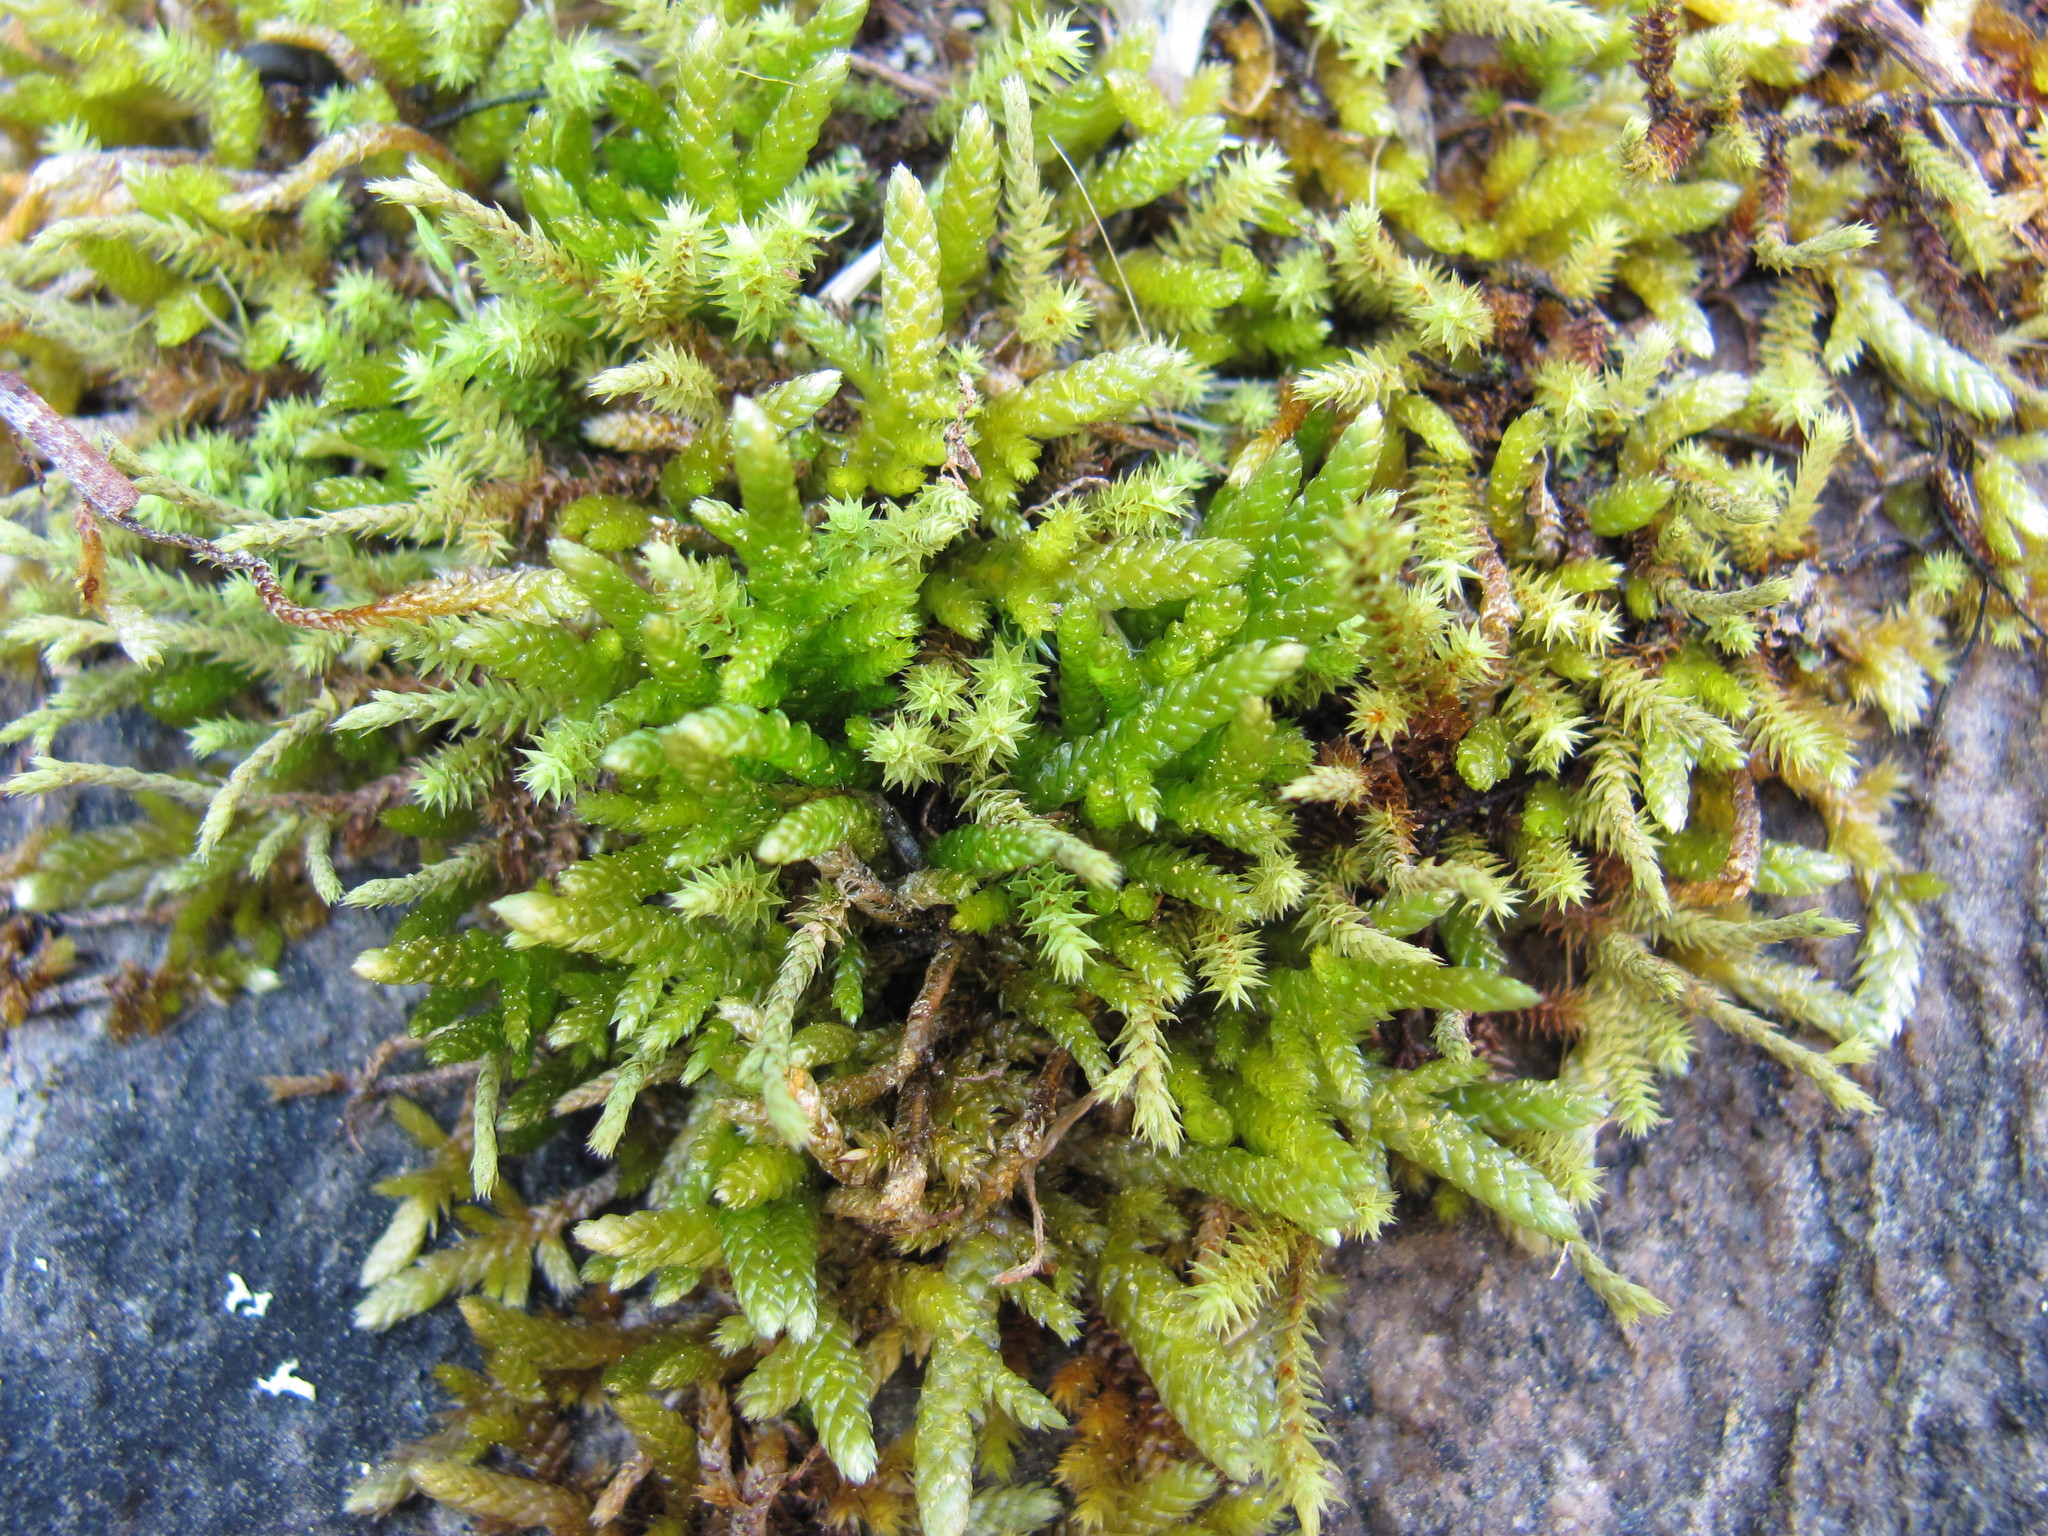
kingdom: Plantae
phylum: Bryophyta
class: Bryopsida
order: Hypnales
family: Brachytheciaceae
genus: Bryoandersonia
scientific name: Bryoandersonia illecebra
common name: Spoon-leaved moss
